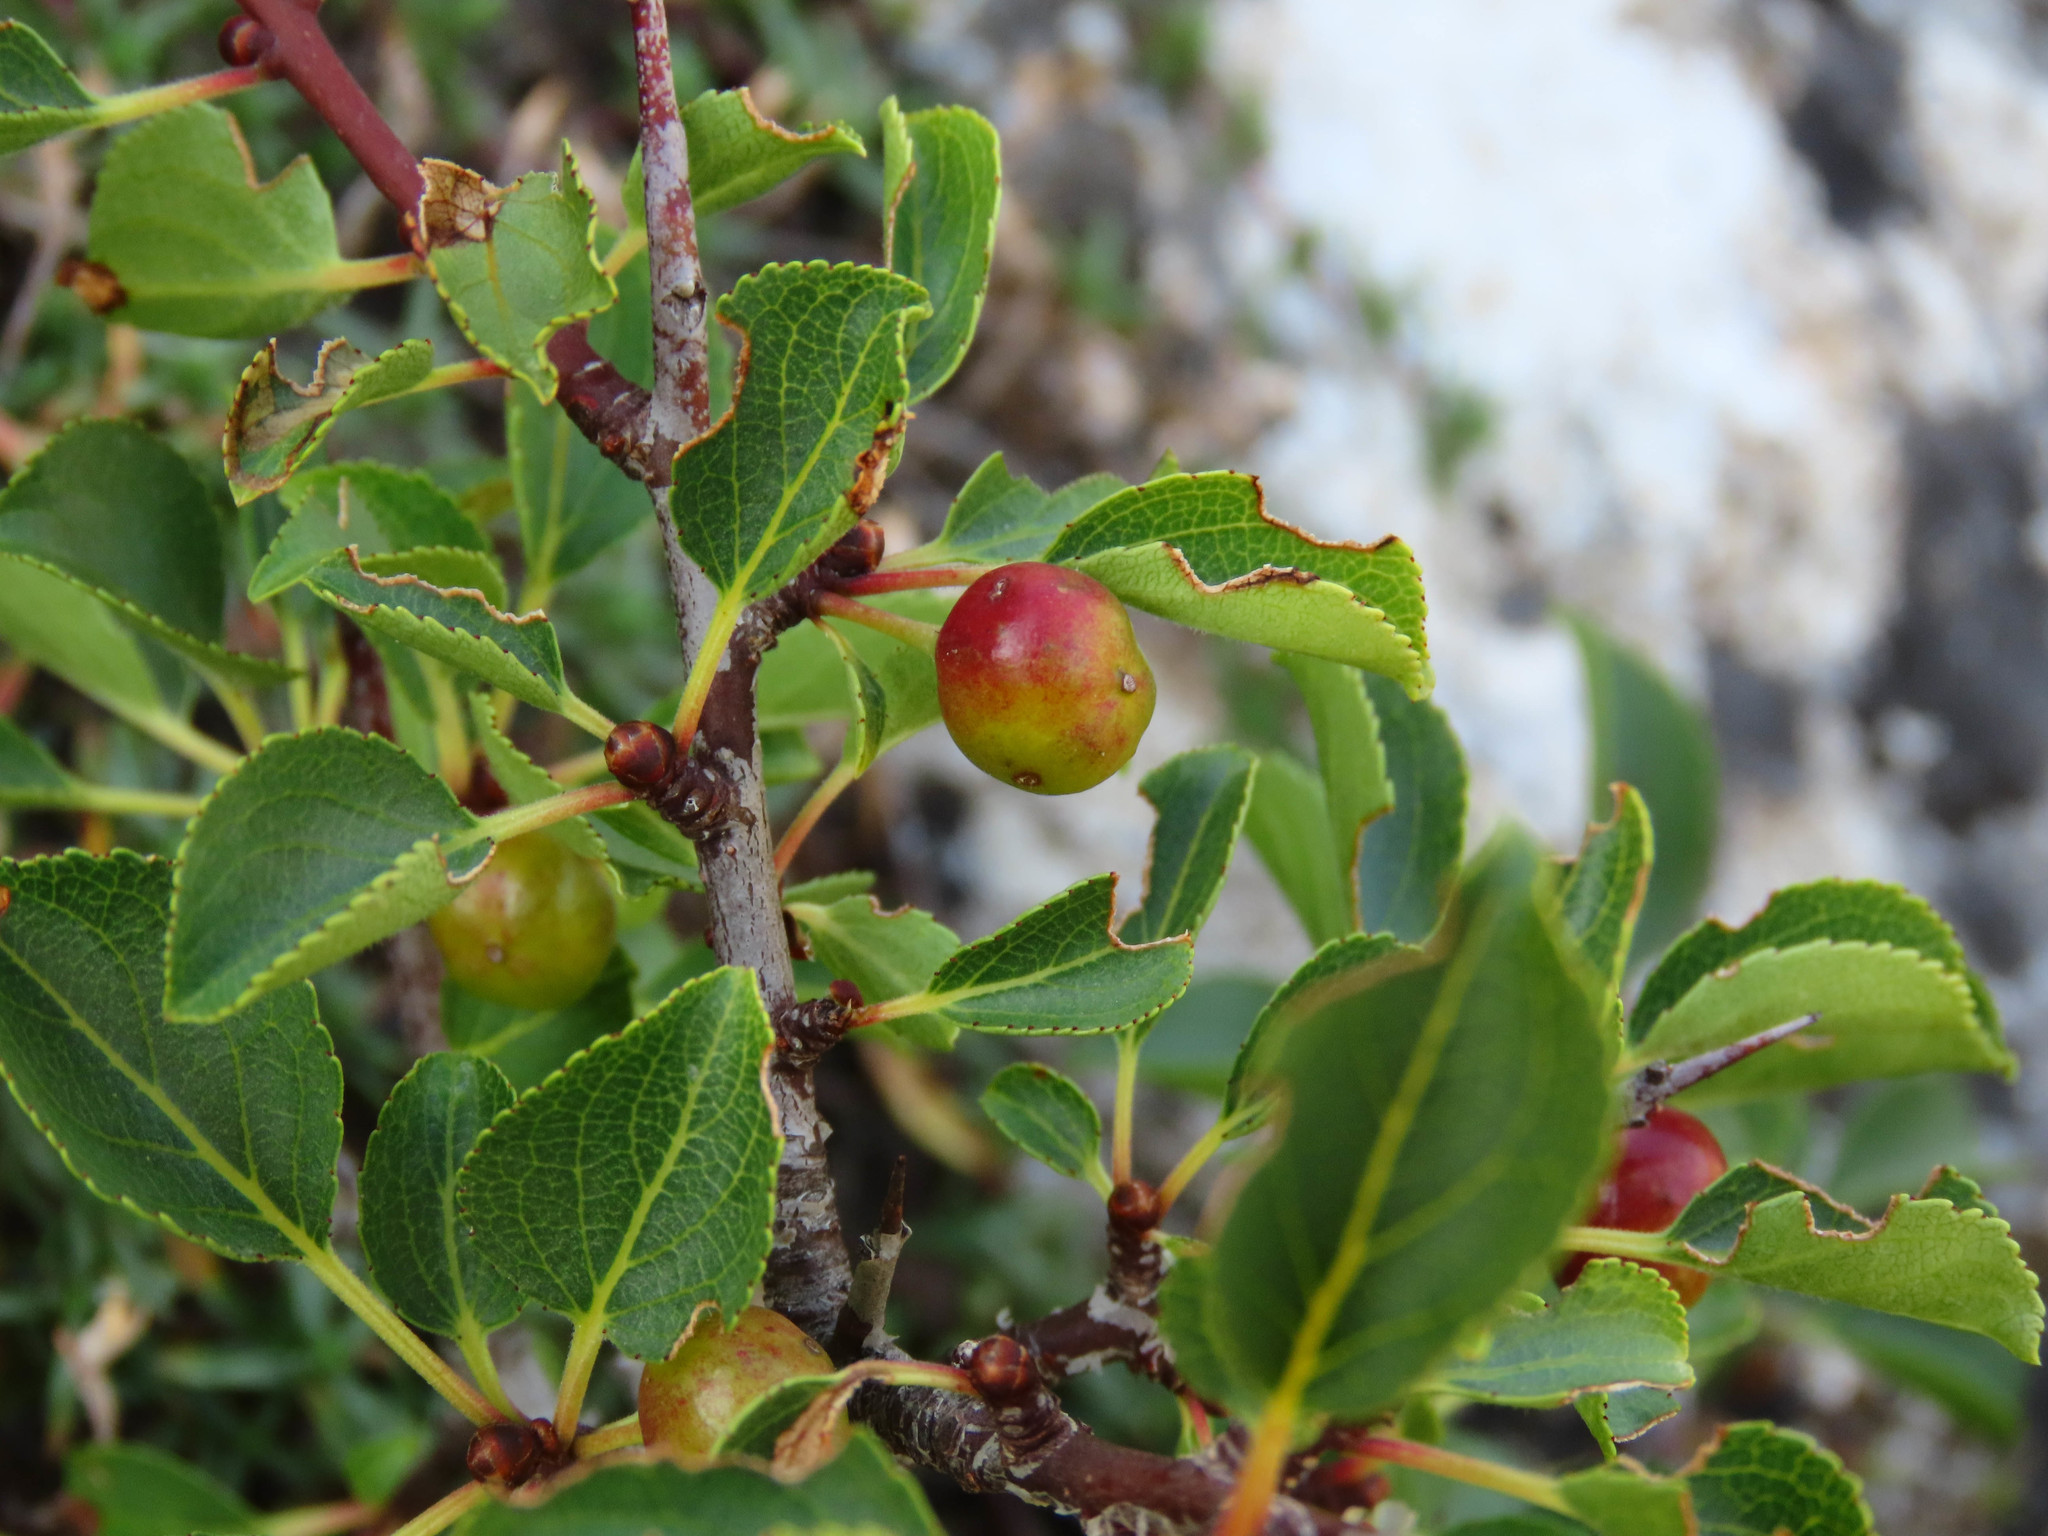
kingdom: Plantae
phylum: Tracheophyta
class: Magnoliopsida
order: Rosales
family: Rhamnaceae
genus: Rhamnus
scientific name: Rhamnus saxatilis
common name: Rock buckthorn
